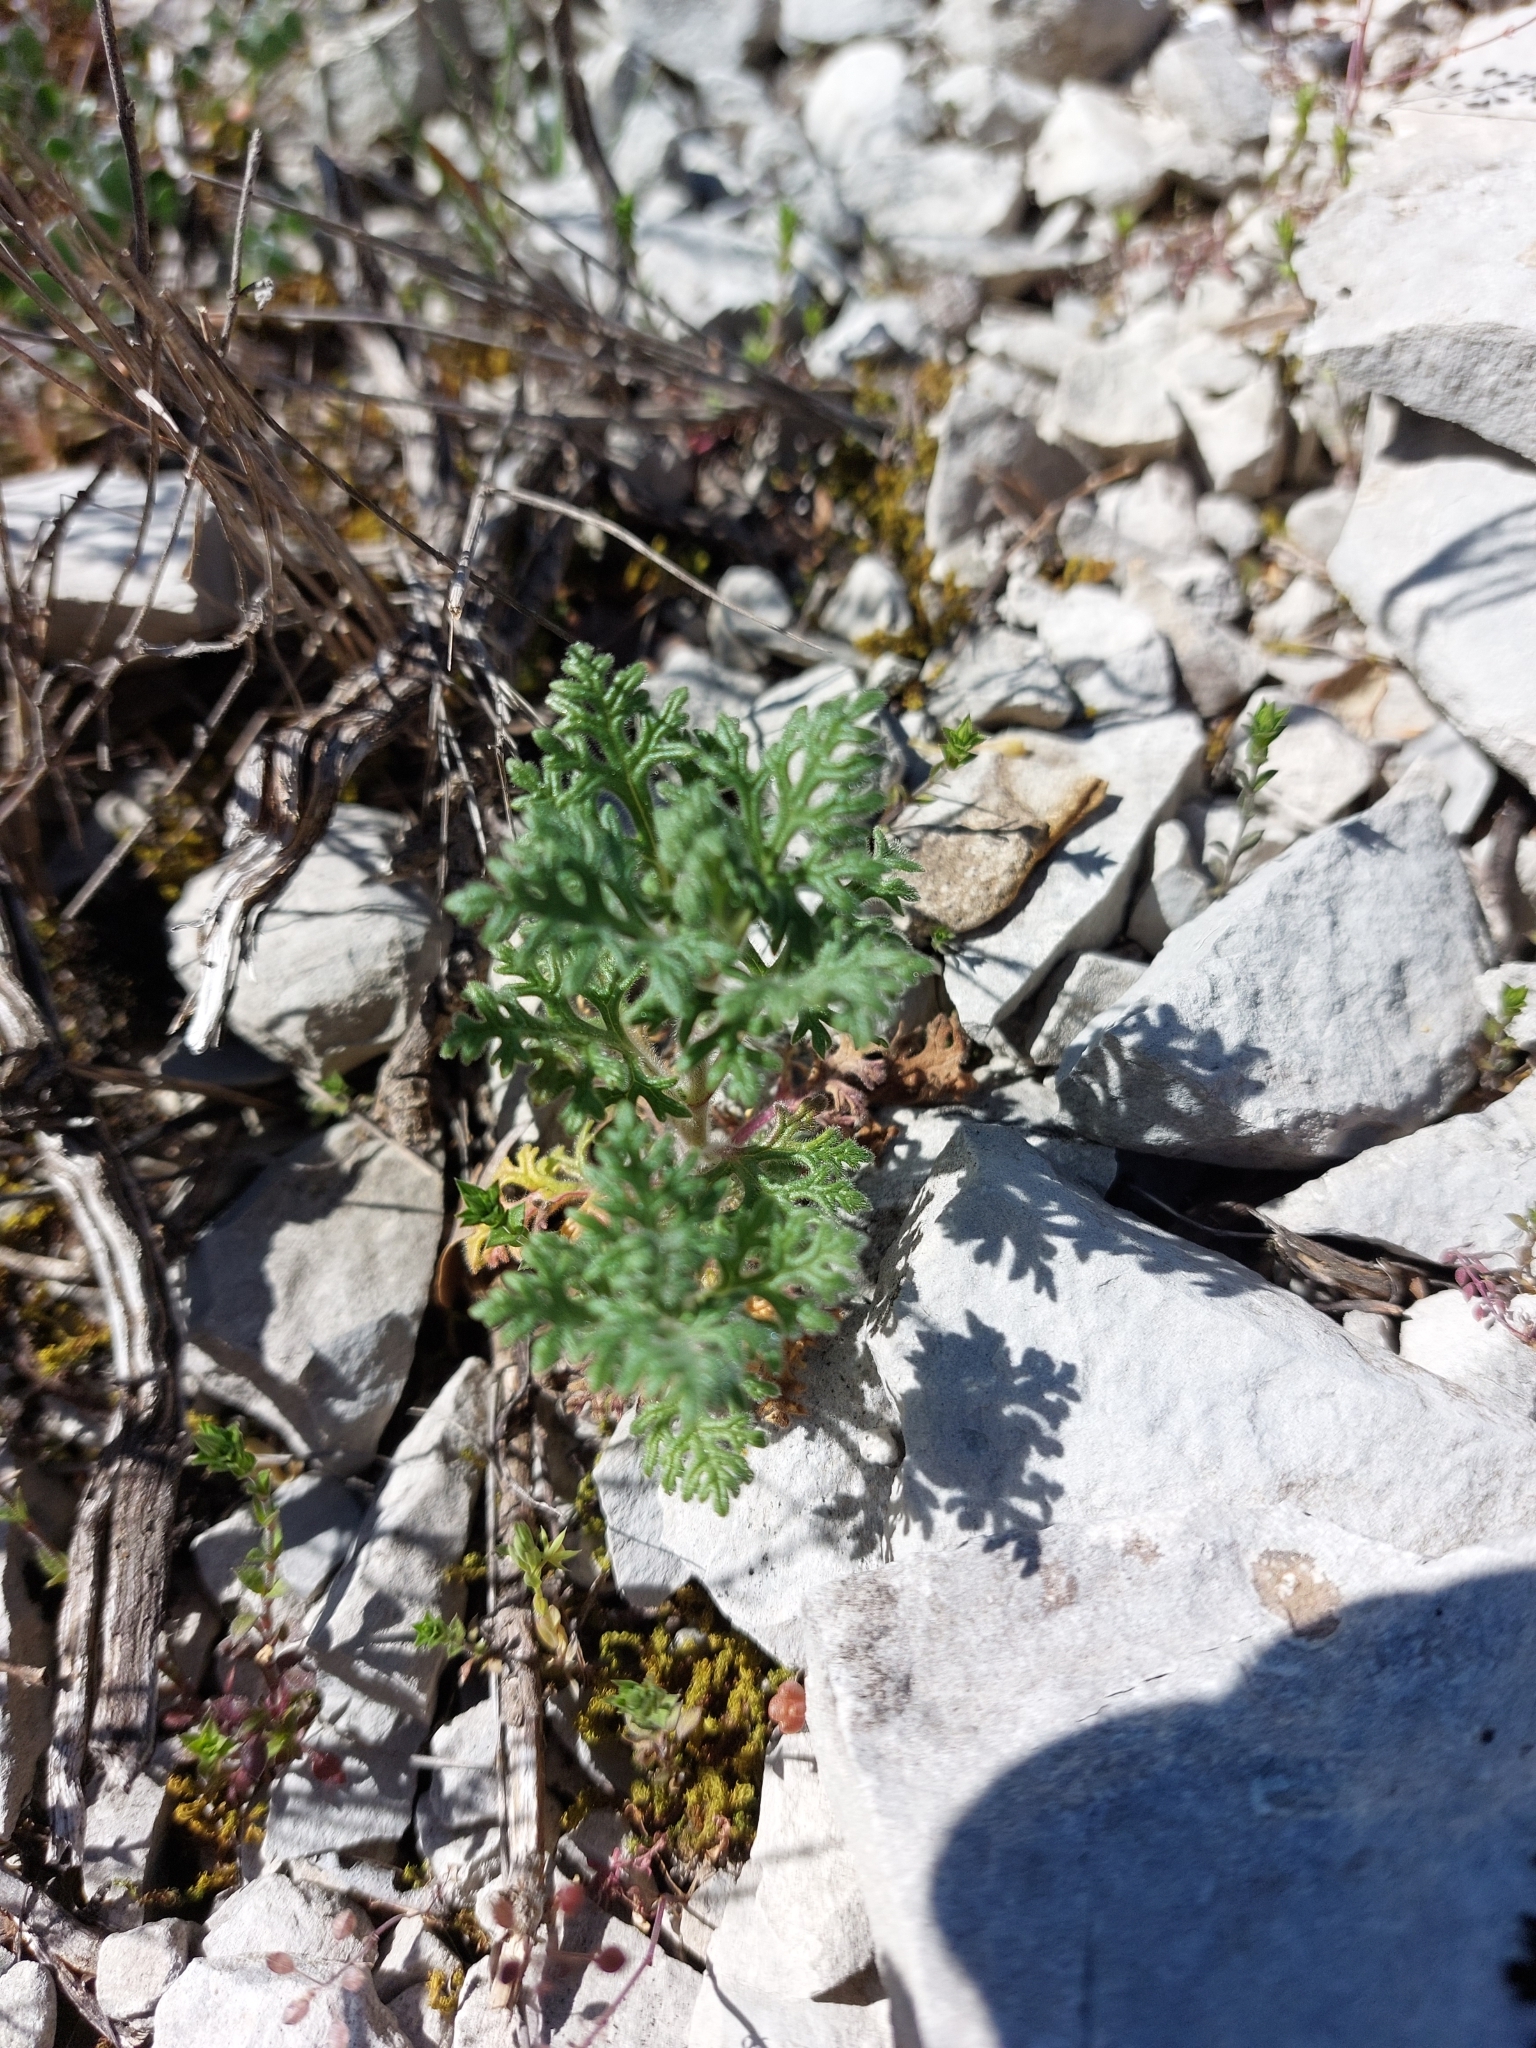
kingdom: Plantae
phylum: Tracheophyta
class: Magnoliopsida
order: Lamiales
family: Lamiaceae
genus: Teucrium
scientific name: Teucrium botrys
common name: Cut-leaved germander
